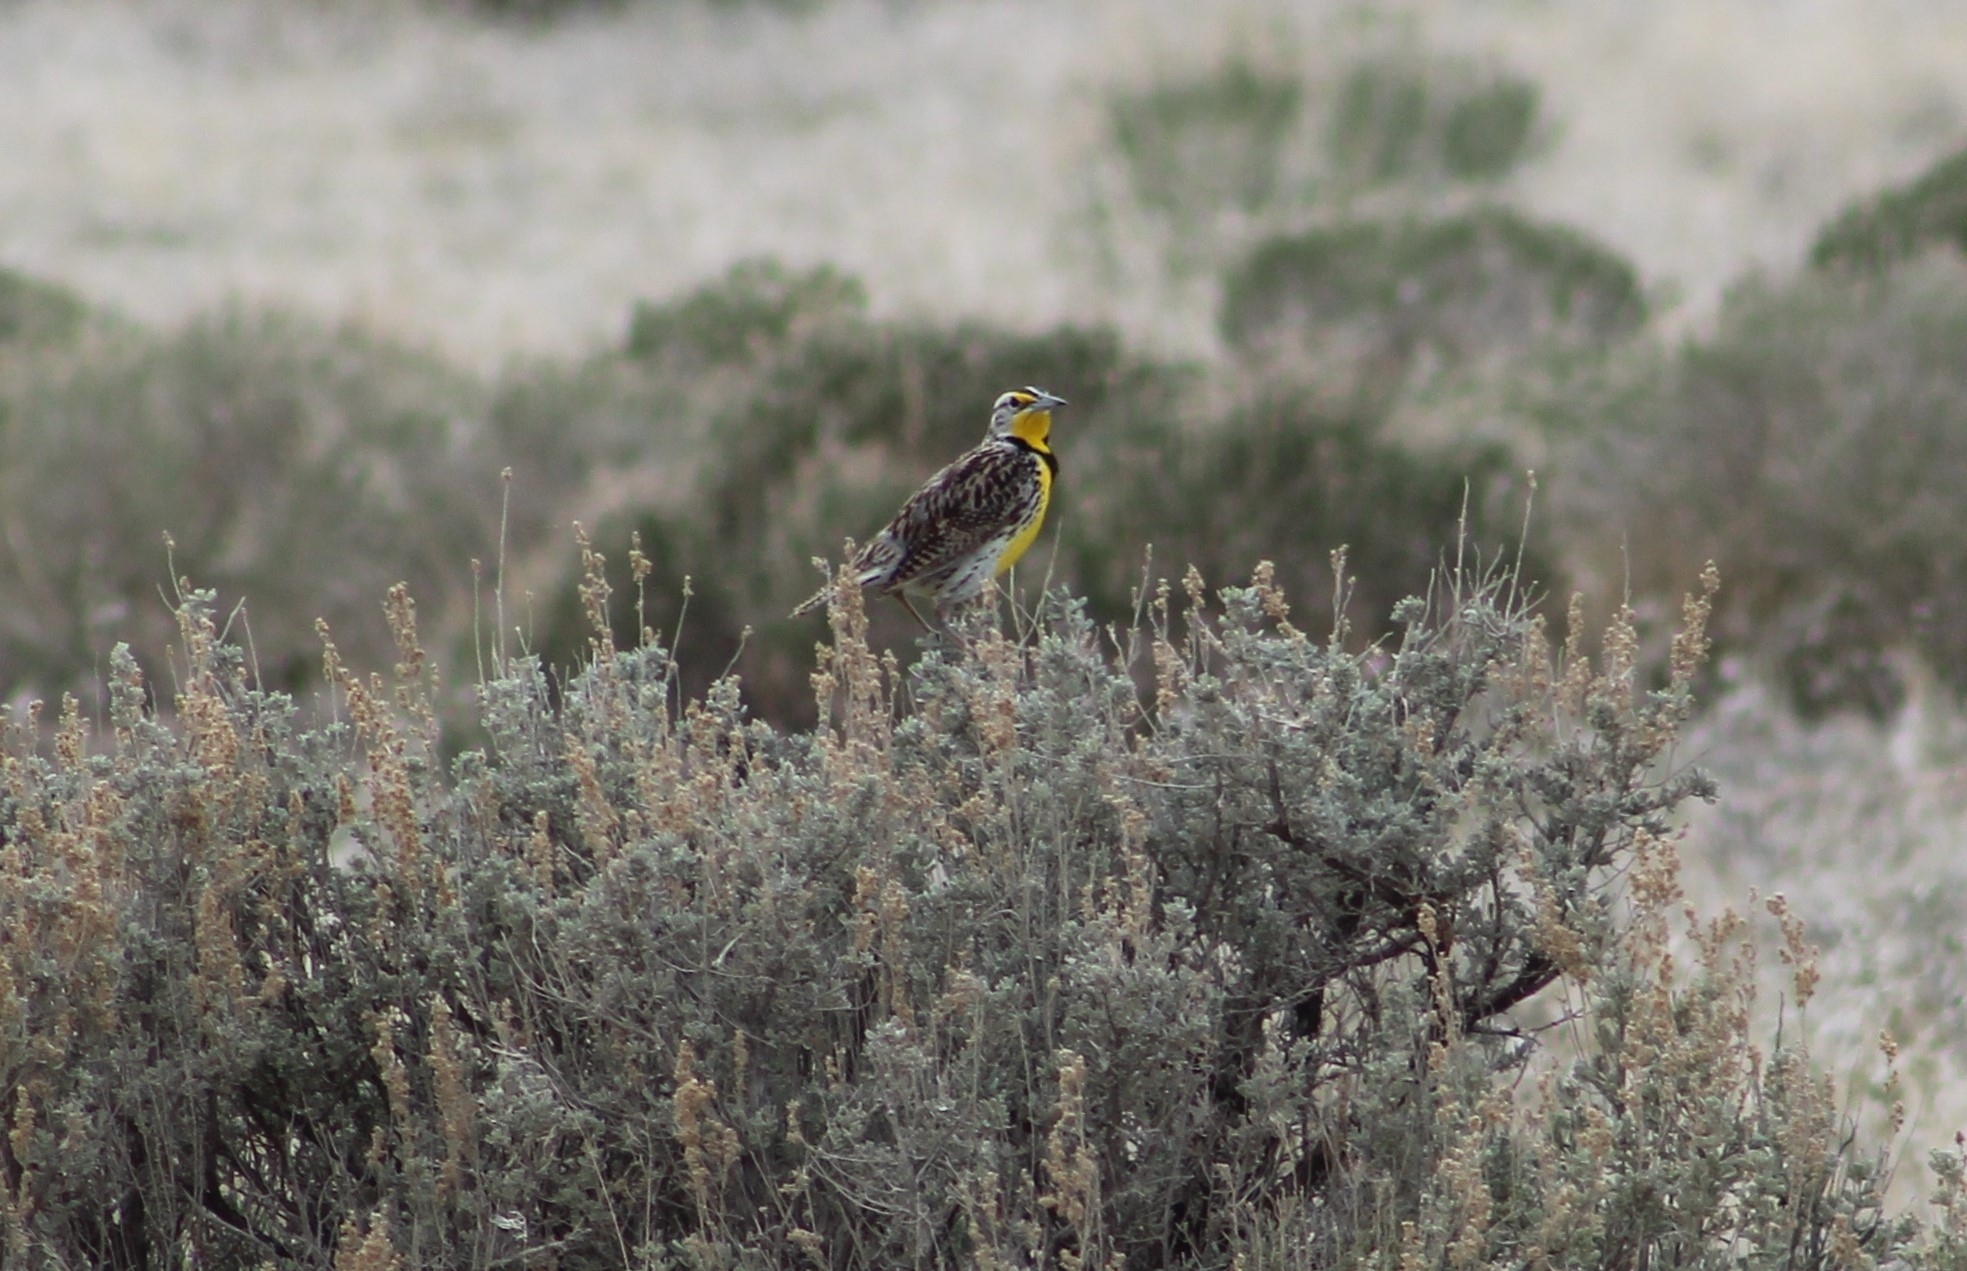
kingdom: Animalia
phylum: Chordata
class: Aves
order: Passeriformes
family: Icteridae
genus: Sturnella
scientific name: Sturnella neglecta
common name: Western meadowlark
